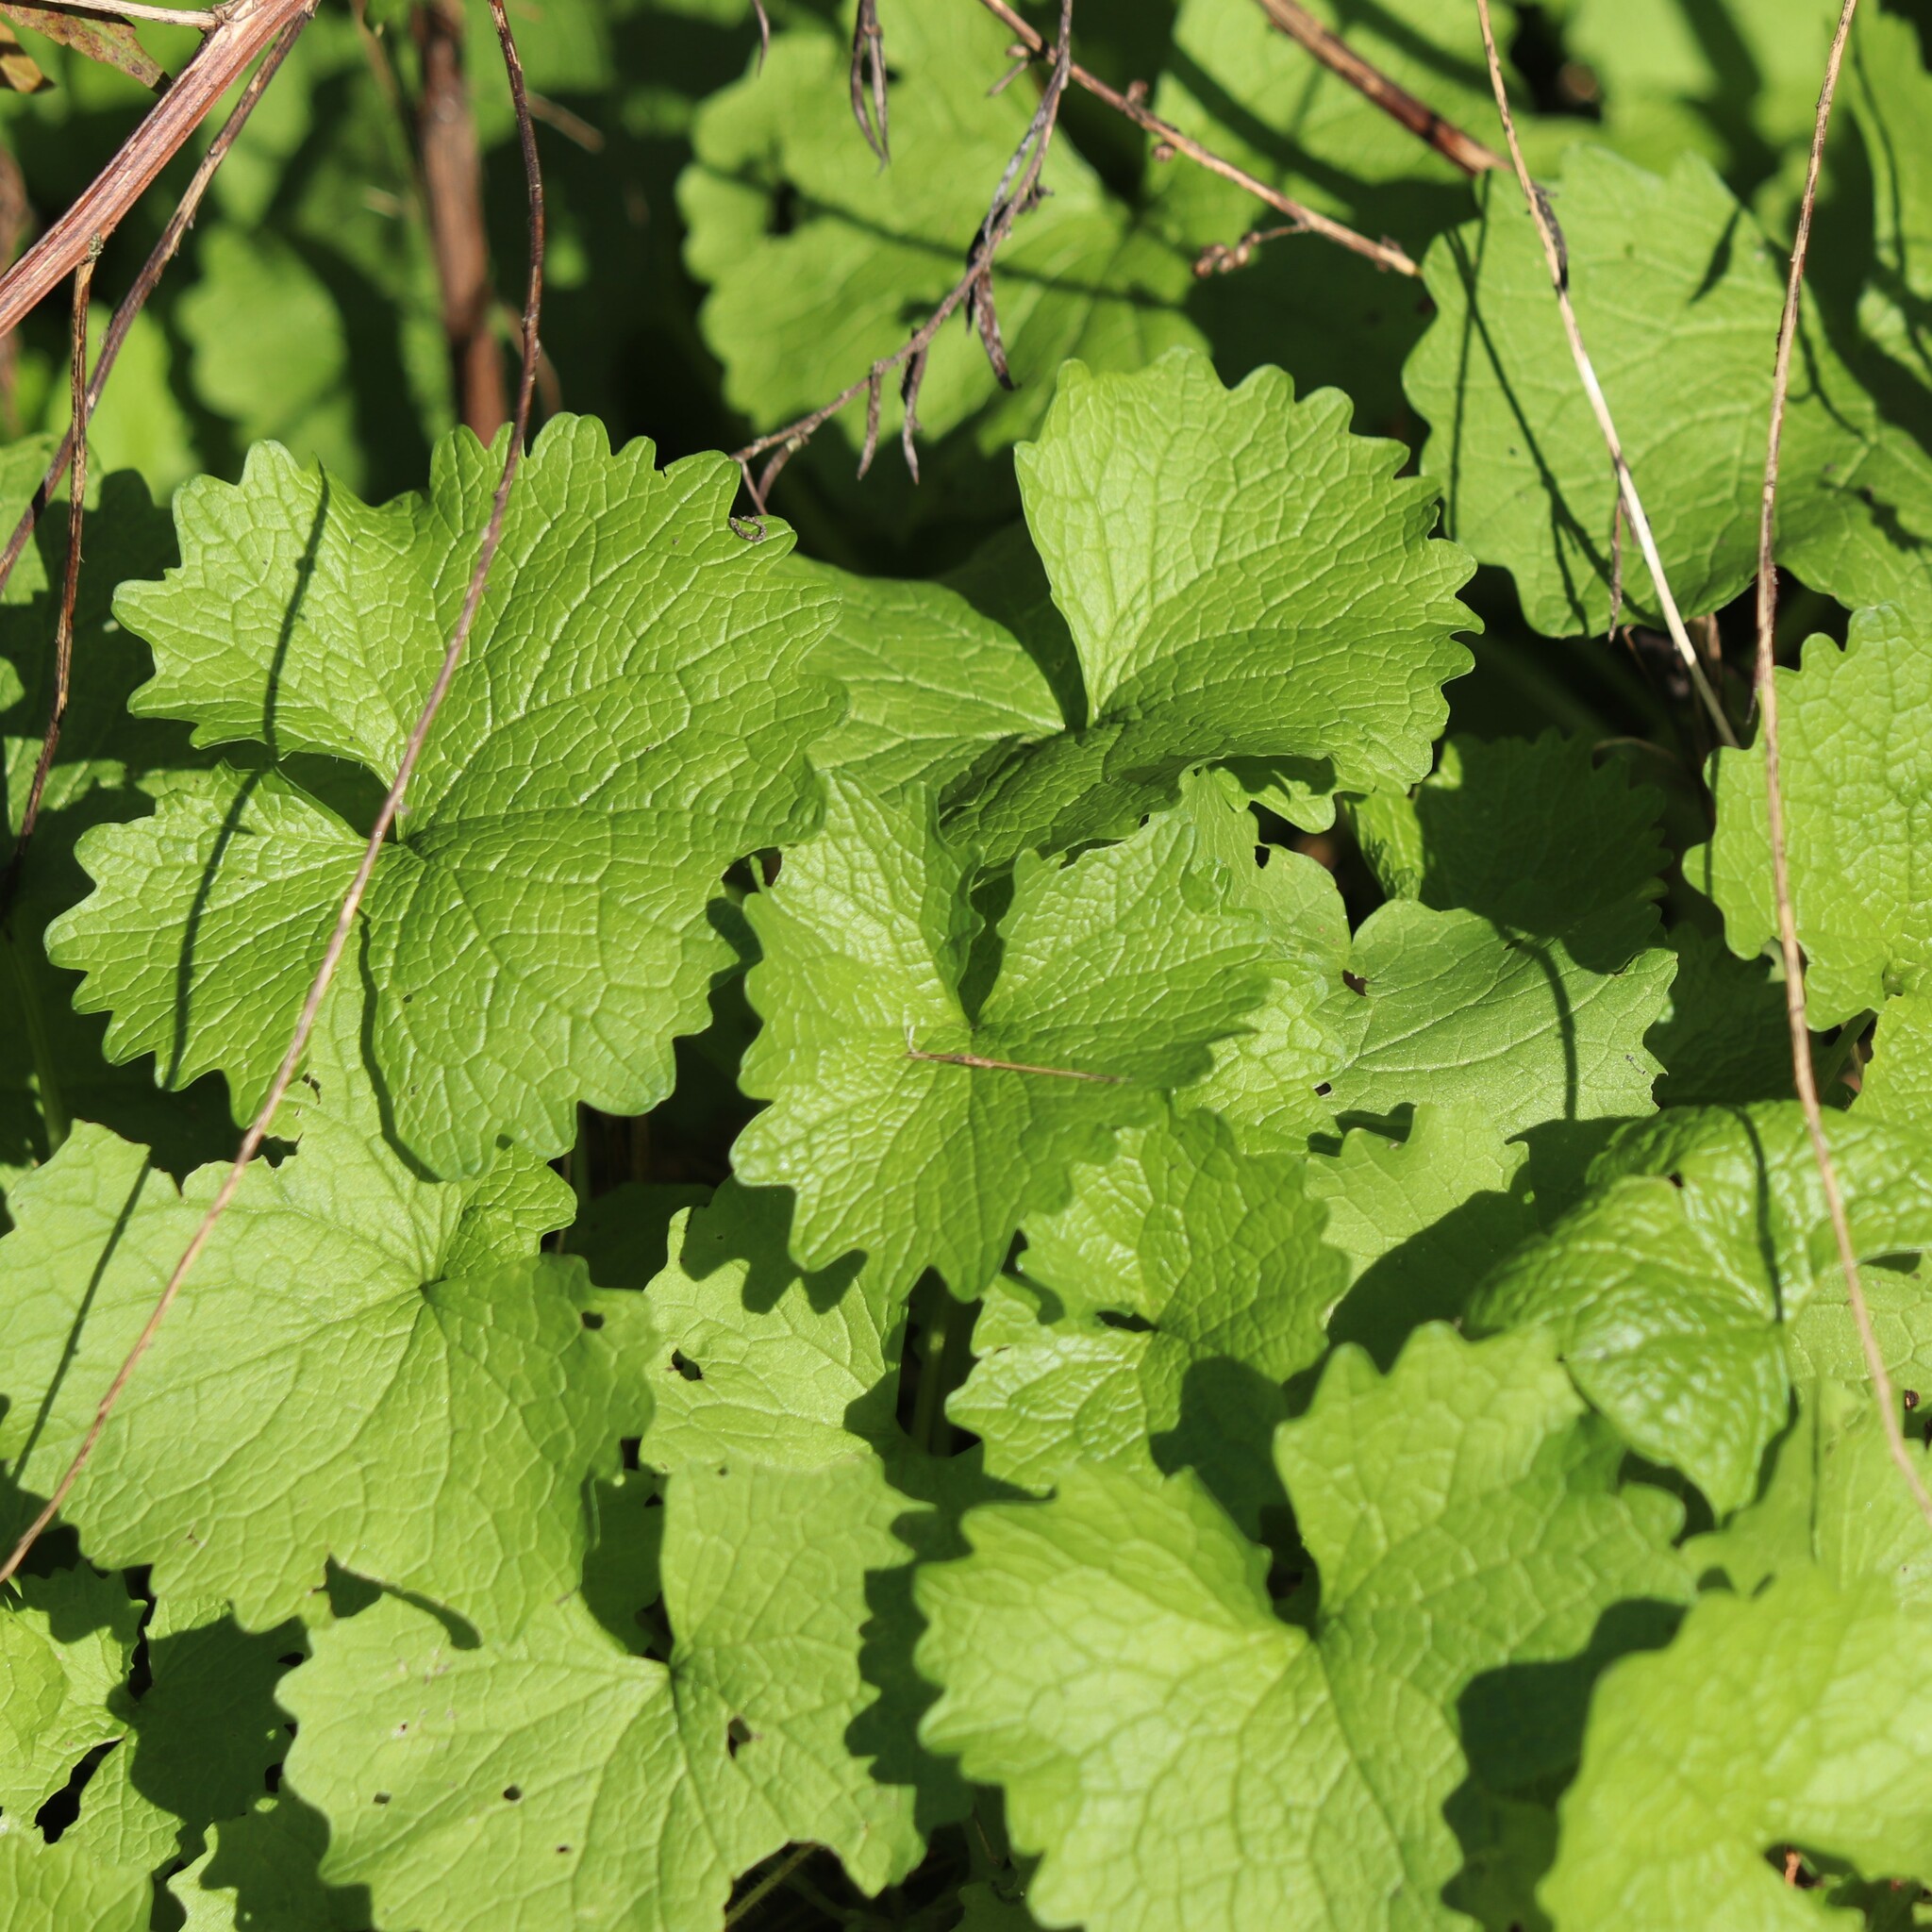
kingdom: Plantae
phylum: Tracheophyta
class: Magnoliopsida
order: Brassicales
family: Brassicaceae
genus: Alliaria
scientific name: Alliaria petiolata
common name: Garlic mustard
